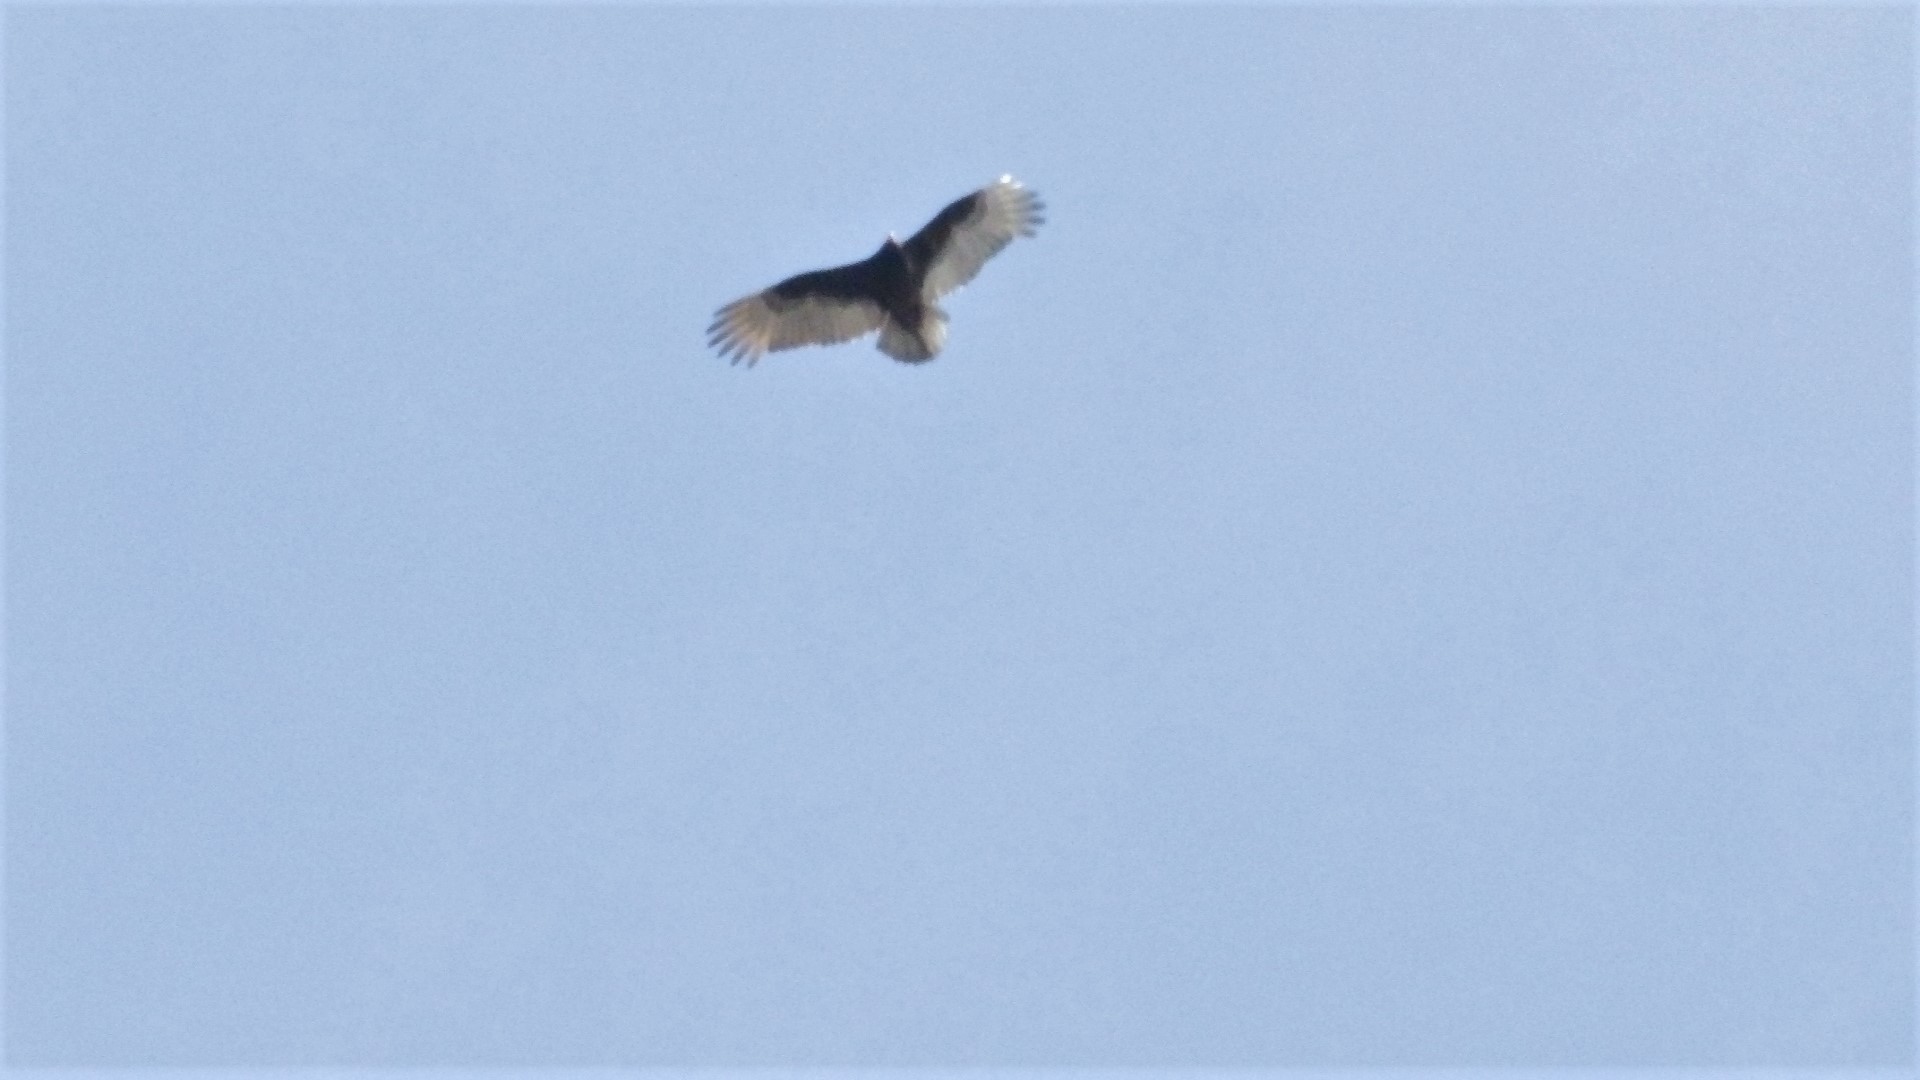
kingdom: Animalia
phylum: Chordata
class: Aves
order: Accipitriformes
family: Cathartidae
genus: Cathartes
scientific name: Cathartes aura
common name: Turkey vulture
